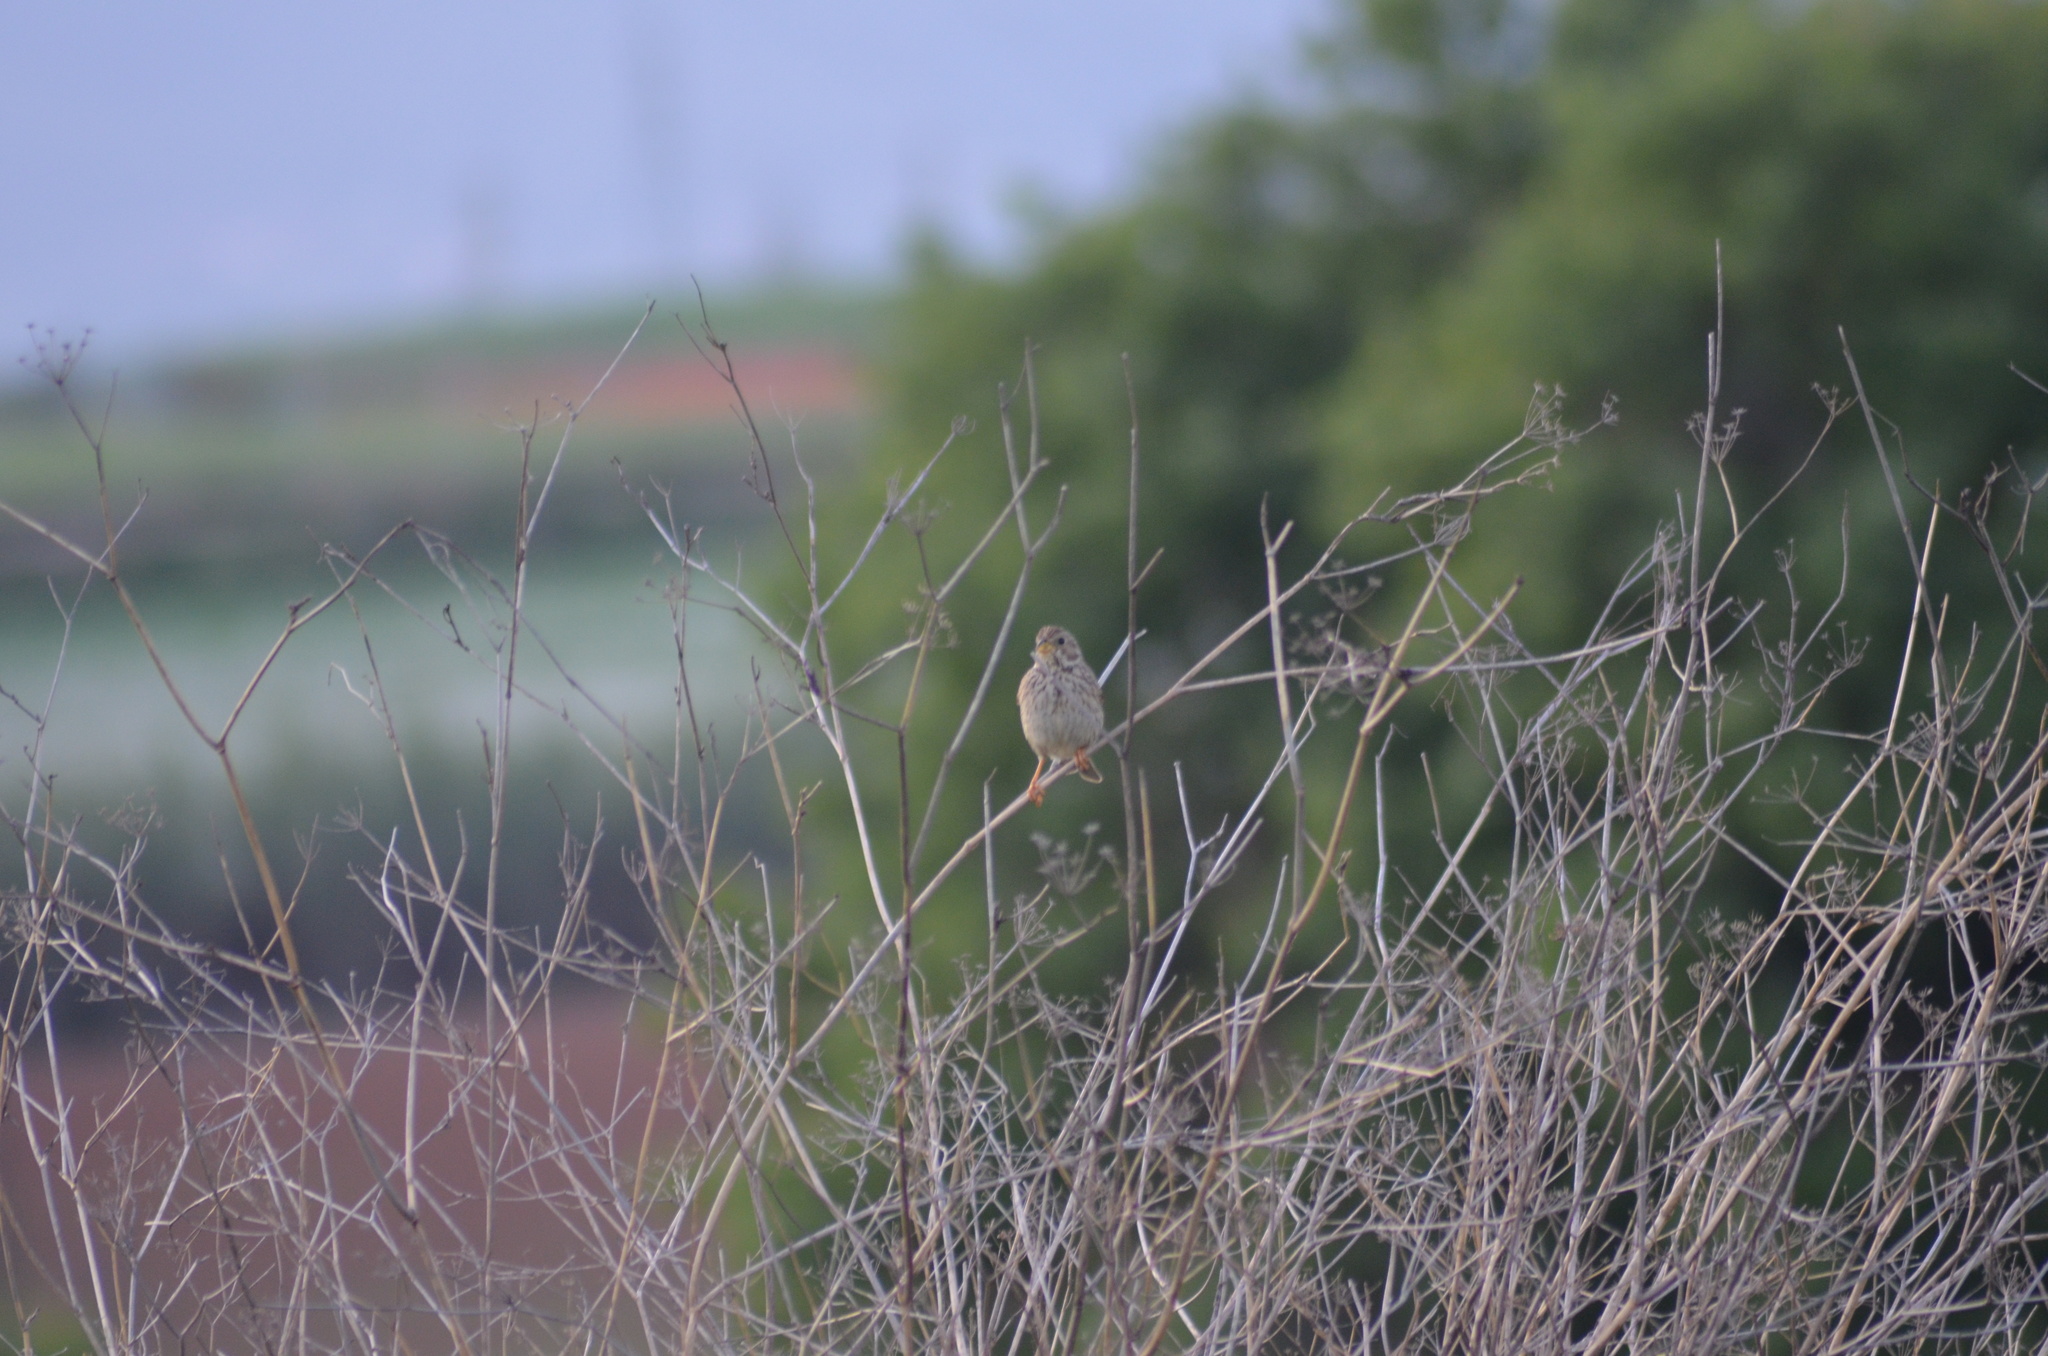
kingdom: Animalia
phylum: Chordata
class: Aves
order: Passeriformes
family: Emberizidae
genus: Emberiza
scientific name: Emberiza calandra
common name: Corn bunting
